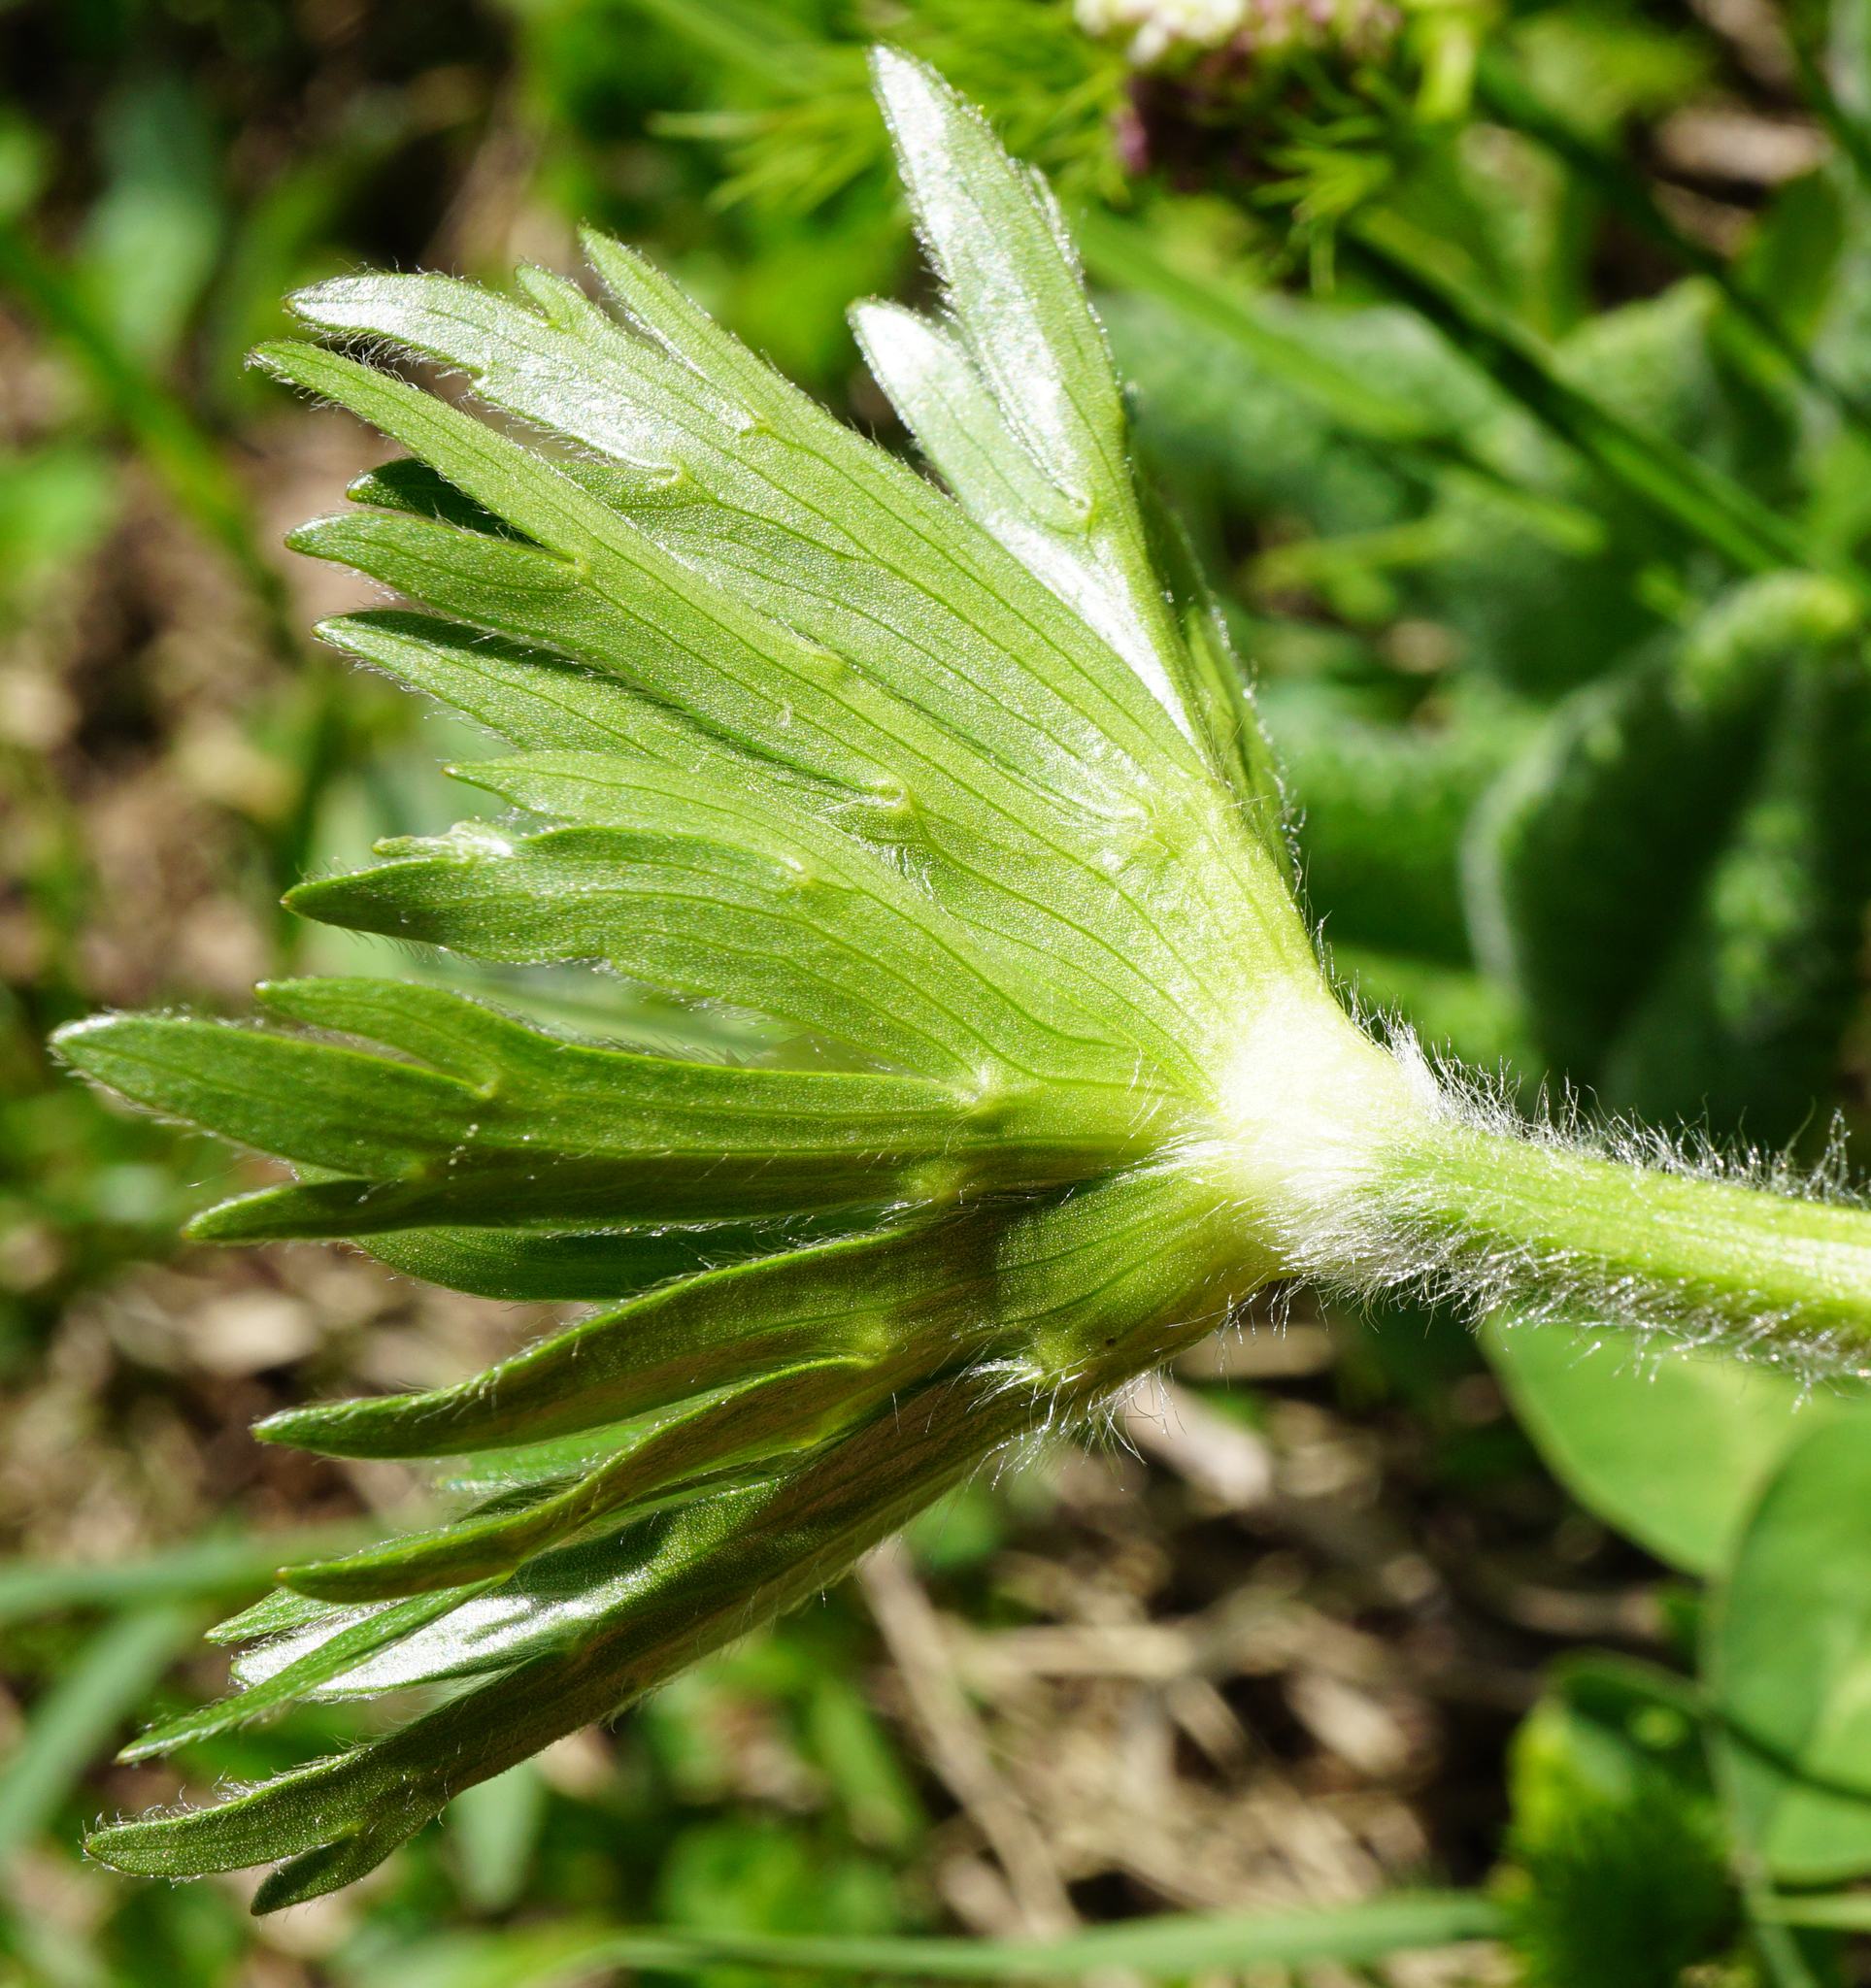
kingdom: Plantae
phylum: Tracheophyta
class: Magnoliopsida
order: Ranunculales
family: Ranunculaceae
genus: Anemonastrum
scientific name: Anemonastrum narcissiflorum
